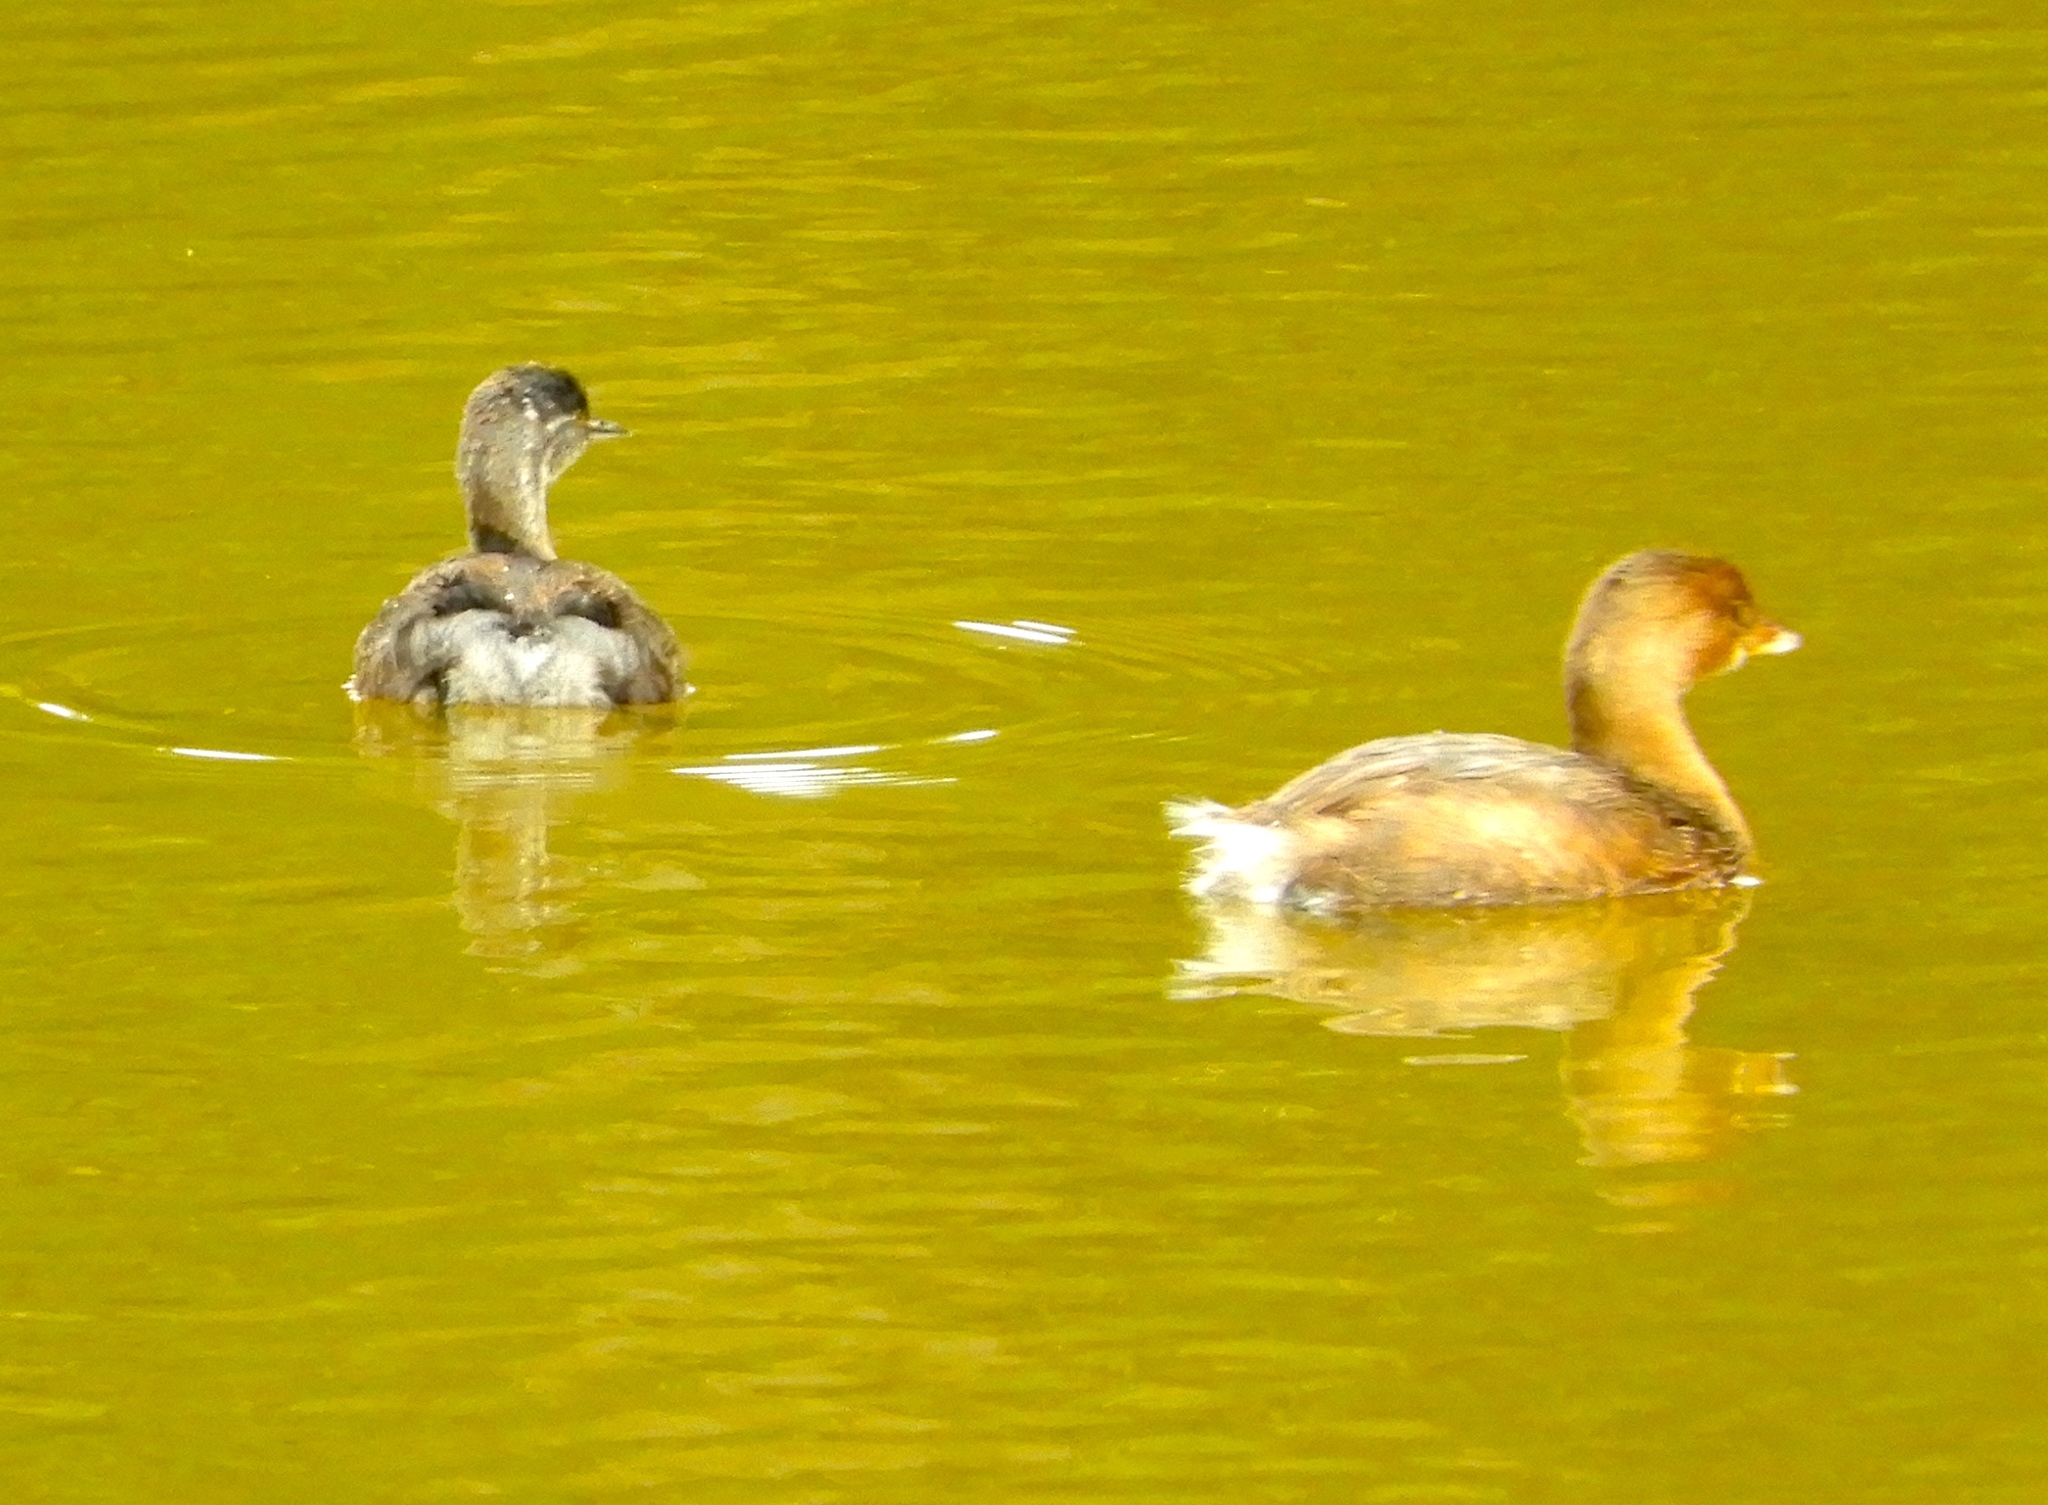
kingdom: Animalia
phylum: Chordata
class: Aves
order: Podicipediformes
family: Podicipedidae
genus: Tachybaptus
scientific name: Tachybaptus dominicus
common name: Least grebe
